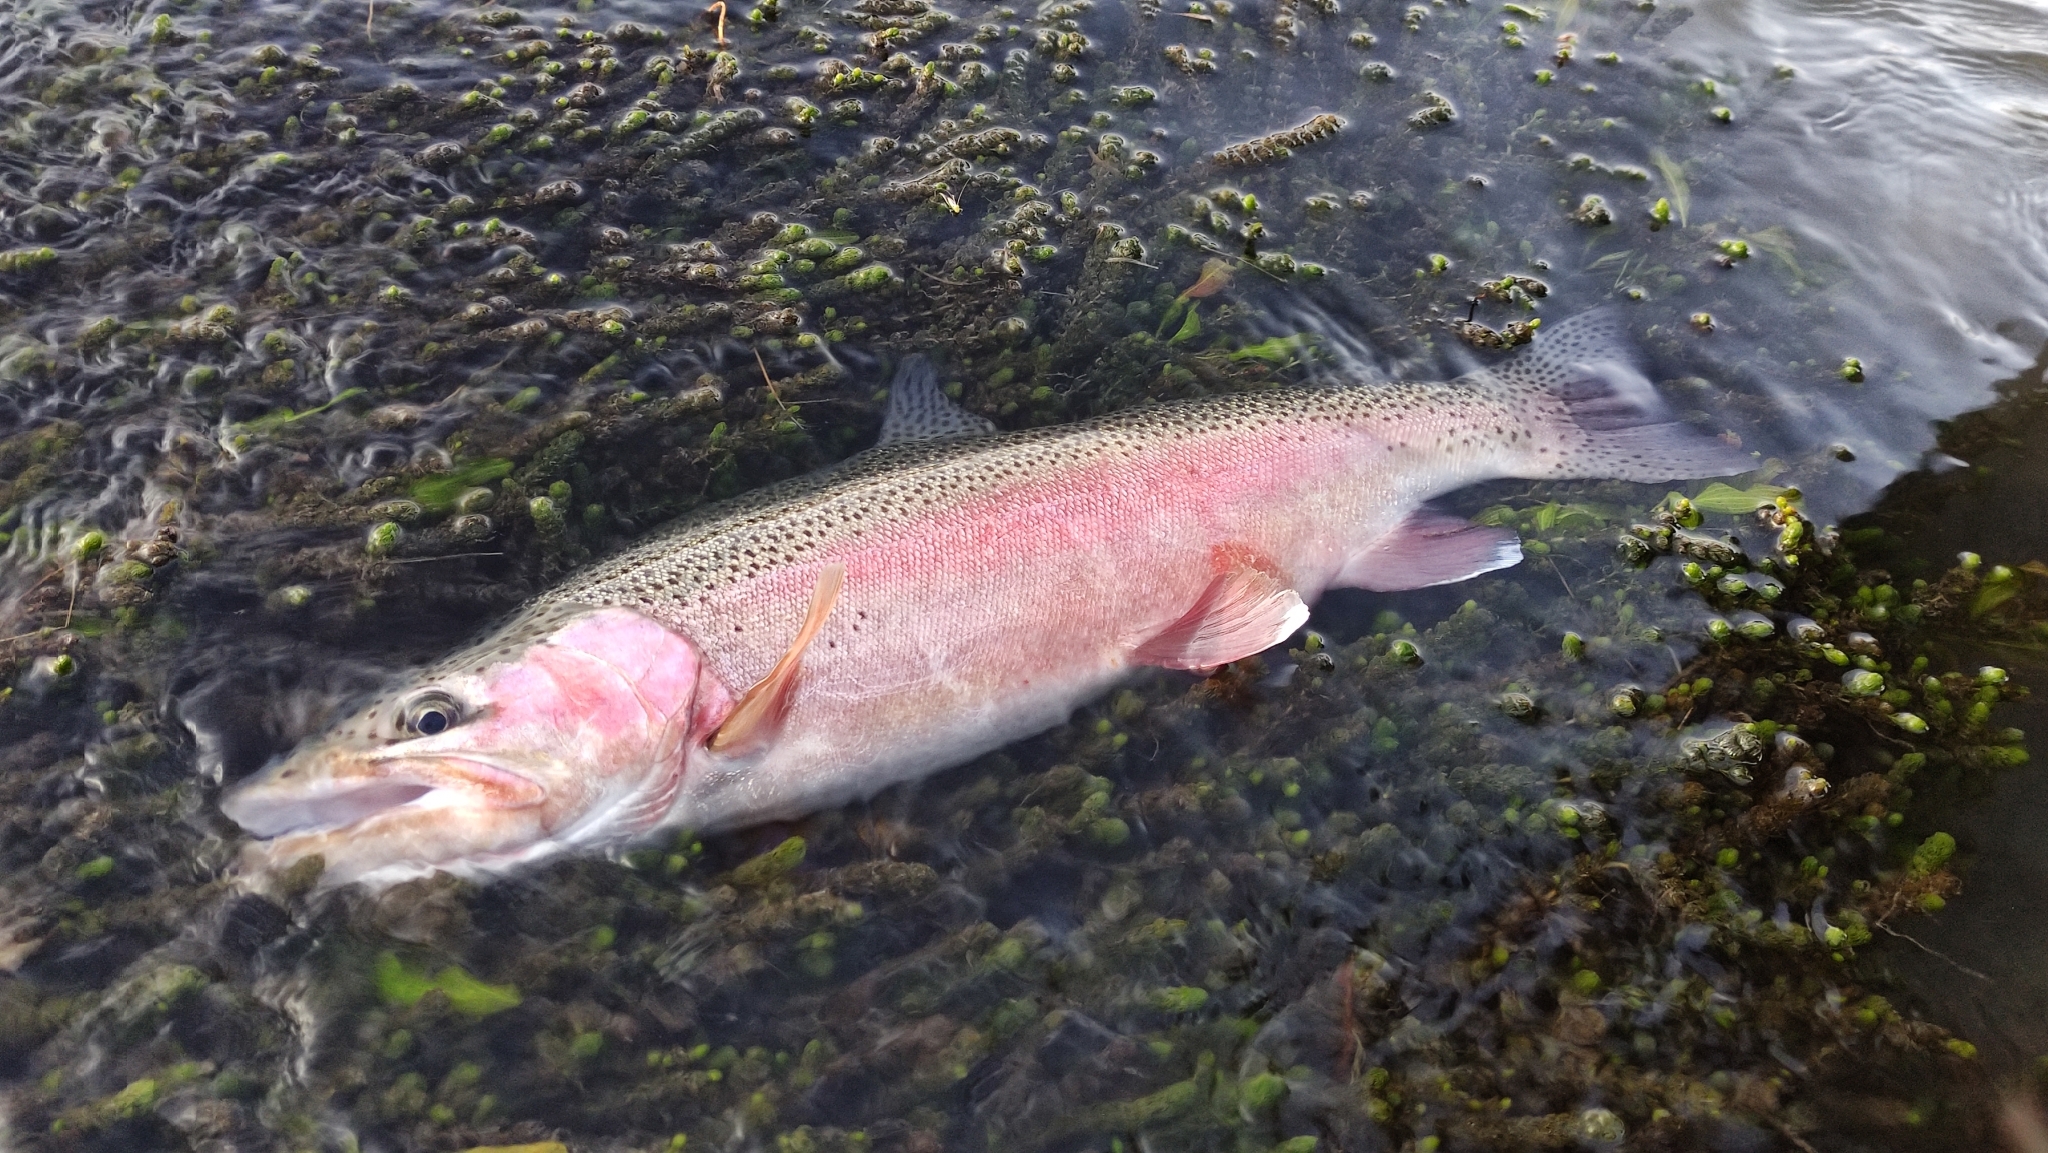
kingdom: Animalia
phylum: Chordata
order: Salmoniformes
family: Salmonidae
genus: Oncorhynchus
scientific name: Oncorhynchus mykiss
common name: Rainbow trout
